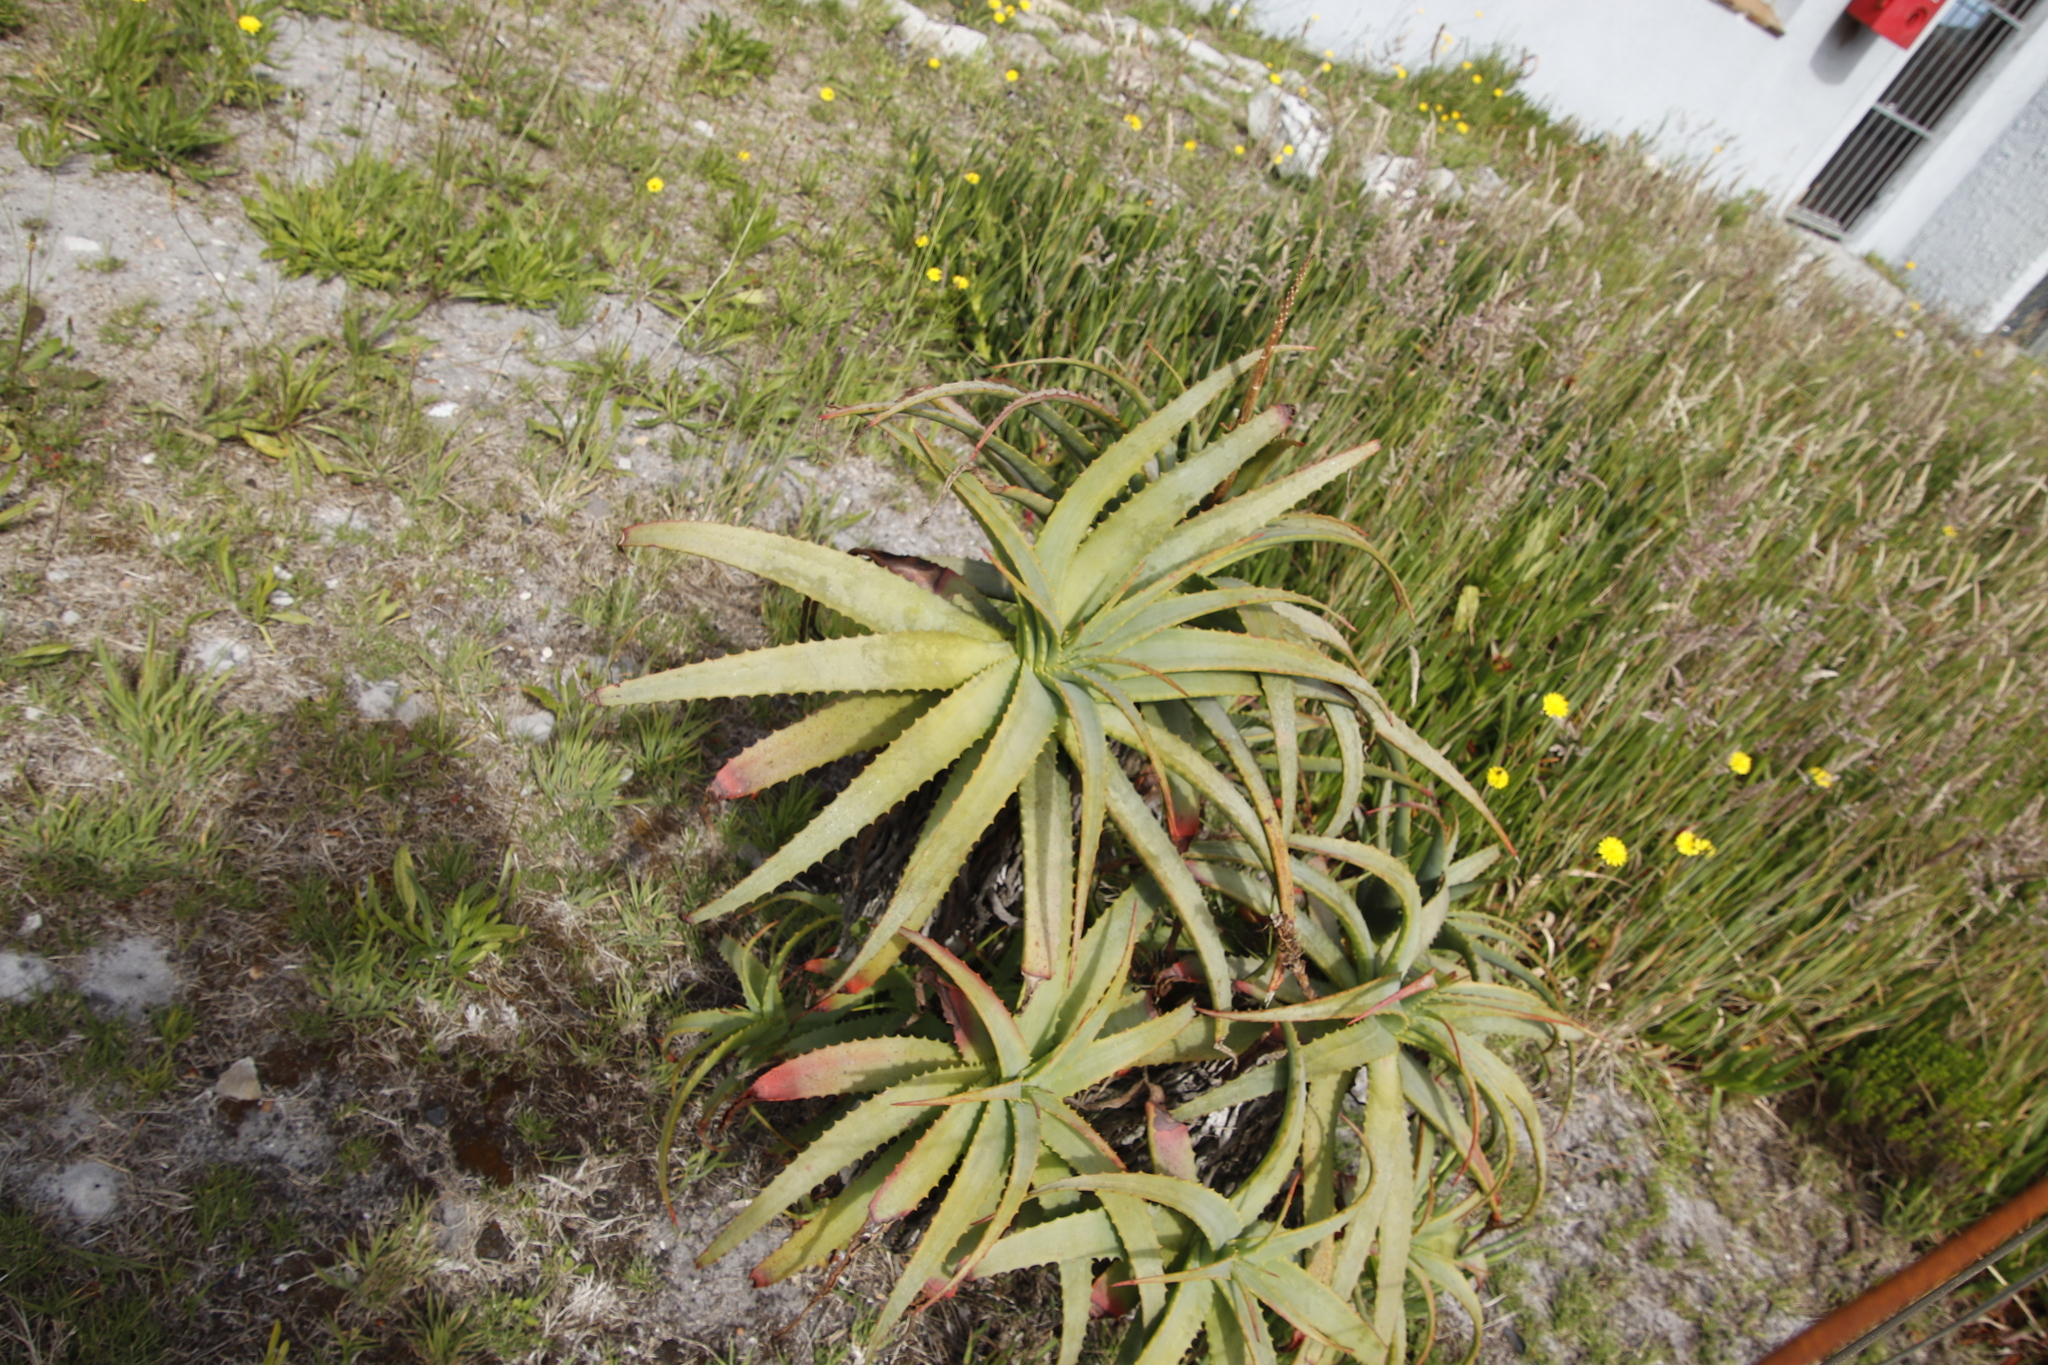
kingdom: Plantae
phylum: Tracheophyta
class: Liliopsida
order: Asparagales
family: Asphodelaceae
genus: Aloe
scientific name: Aloe arborescens
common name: Candelabra aloe
